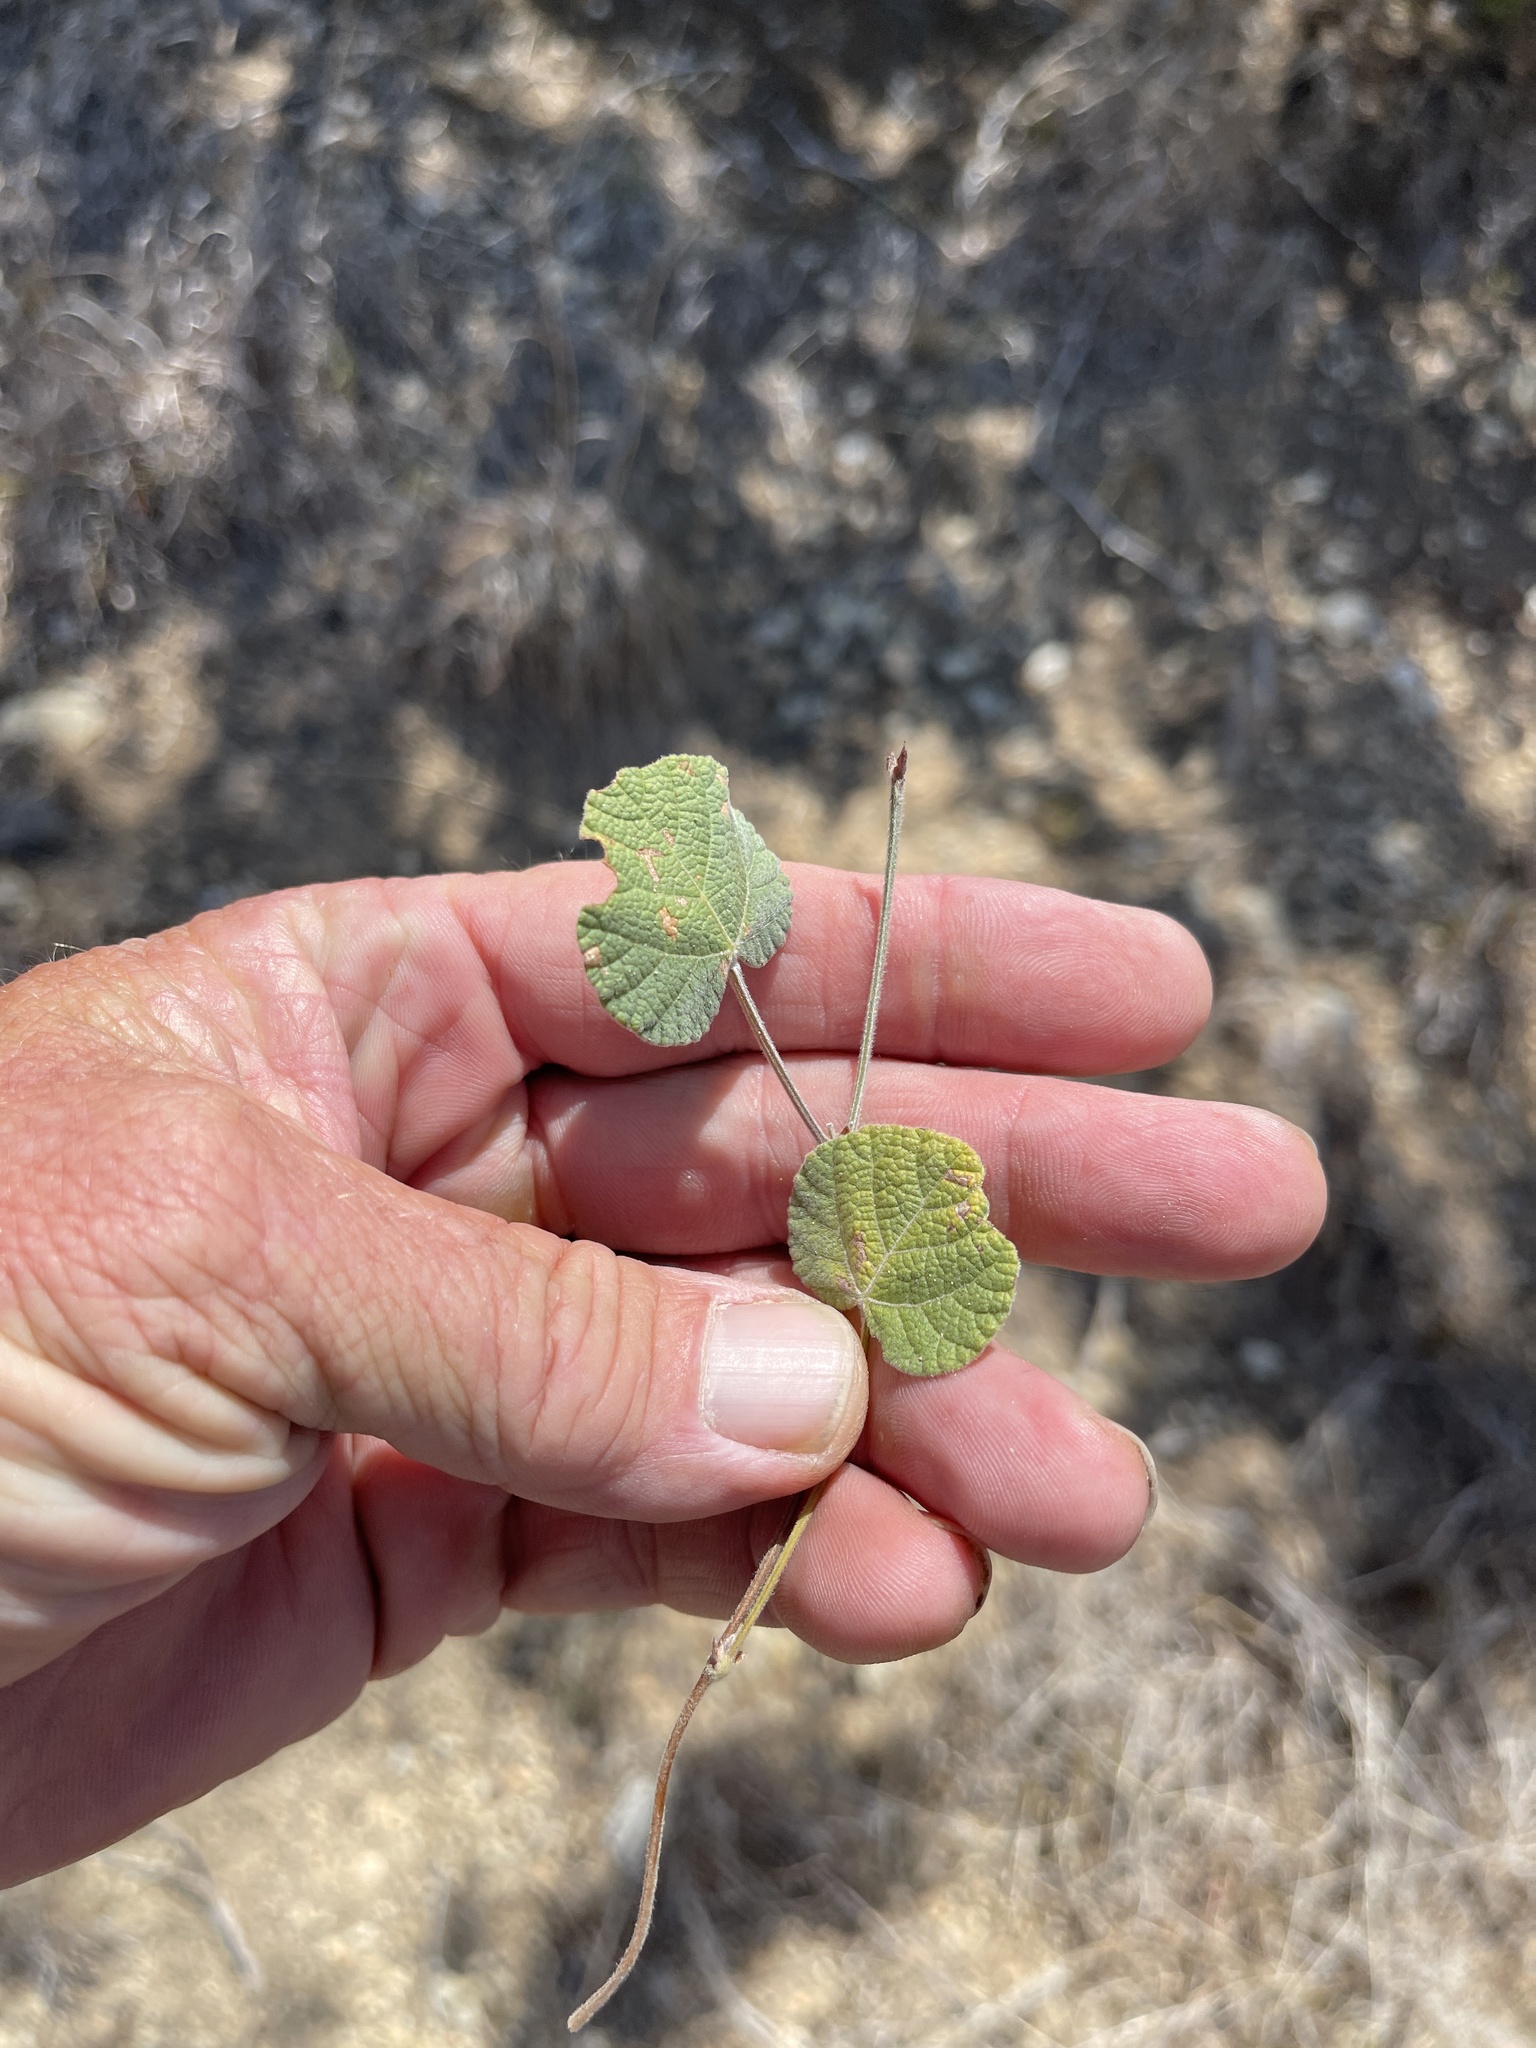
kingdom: Plantae
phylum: Tracheophyta
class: Magnoliopsida
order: Fabales
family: Fabaceae
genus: Rhynchosia
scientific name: Rhynchosia americana
